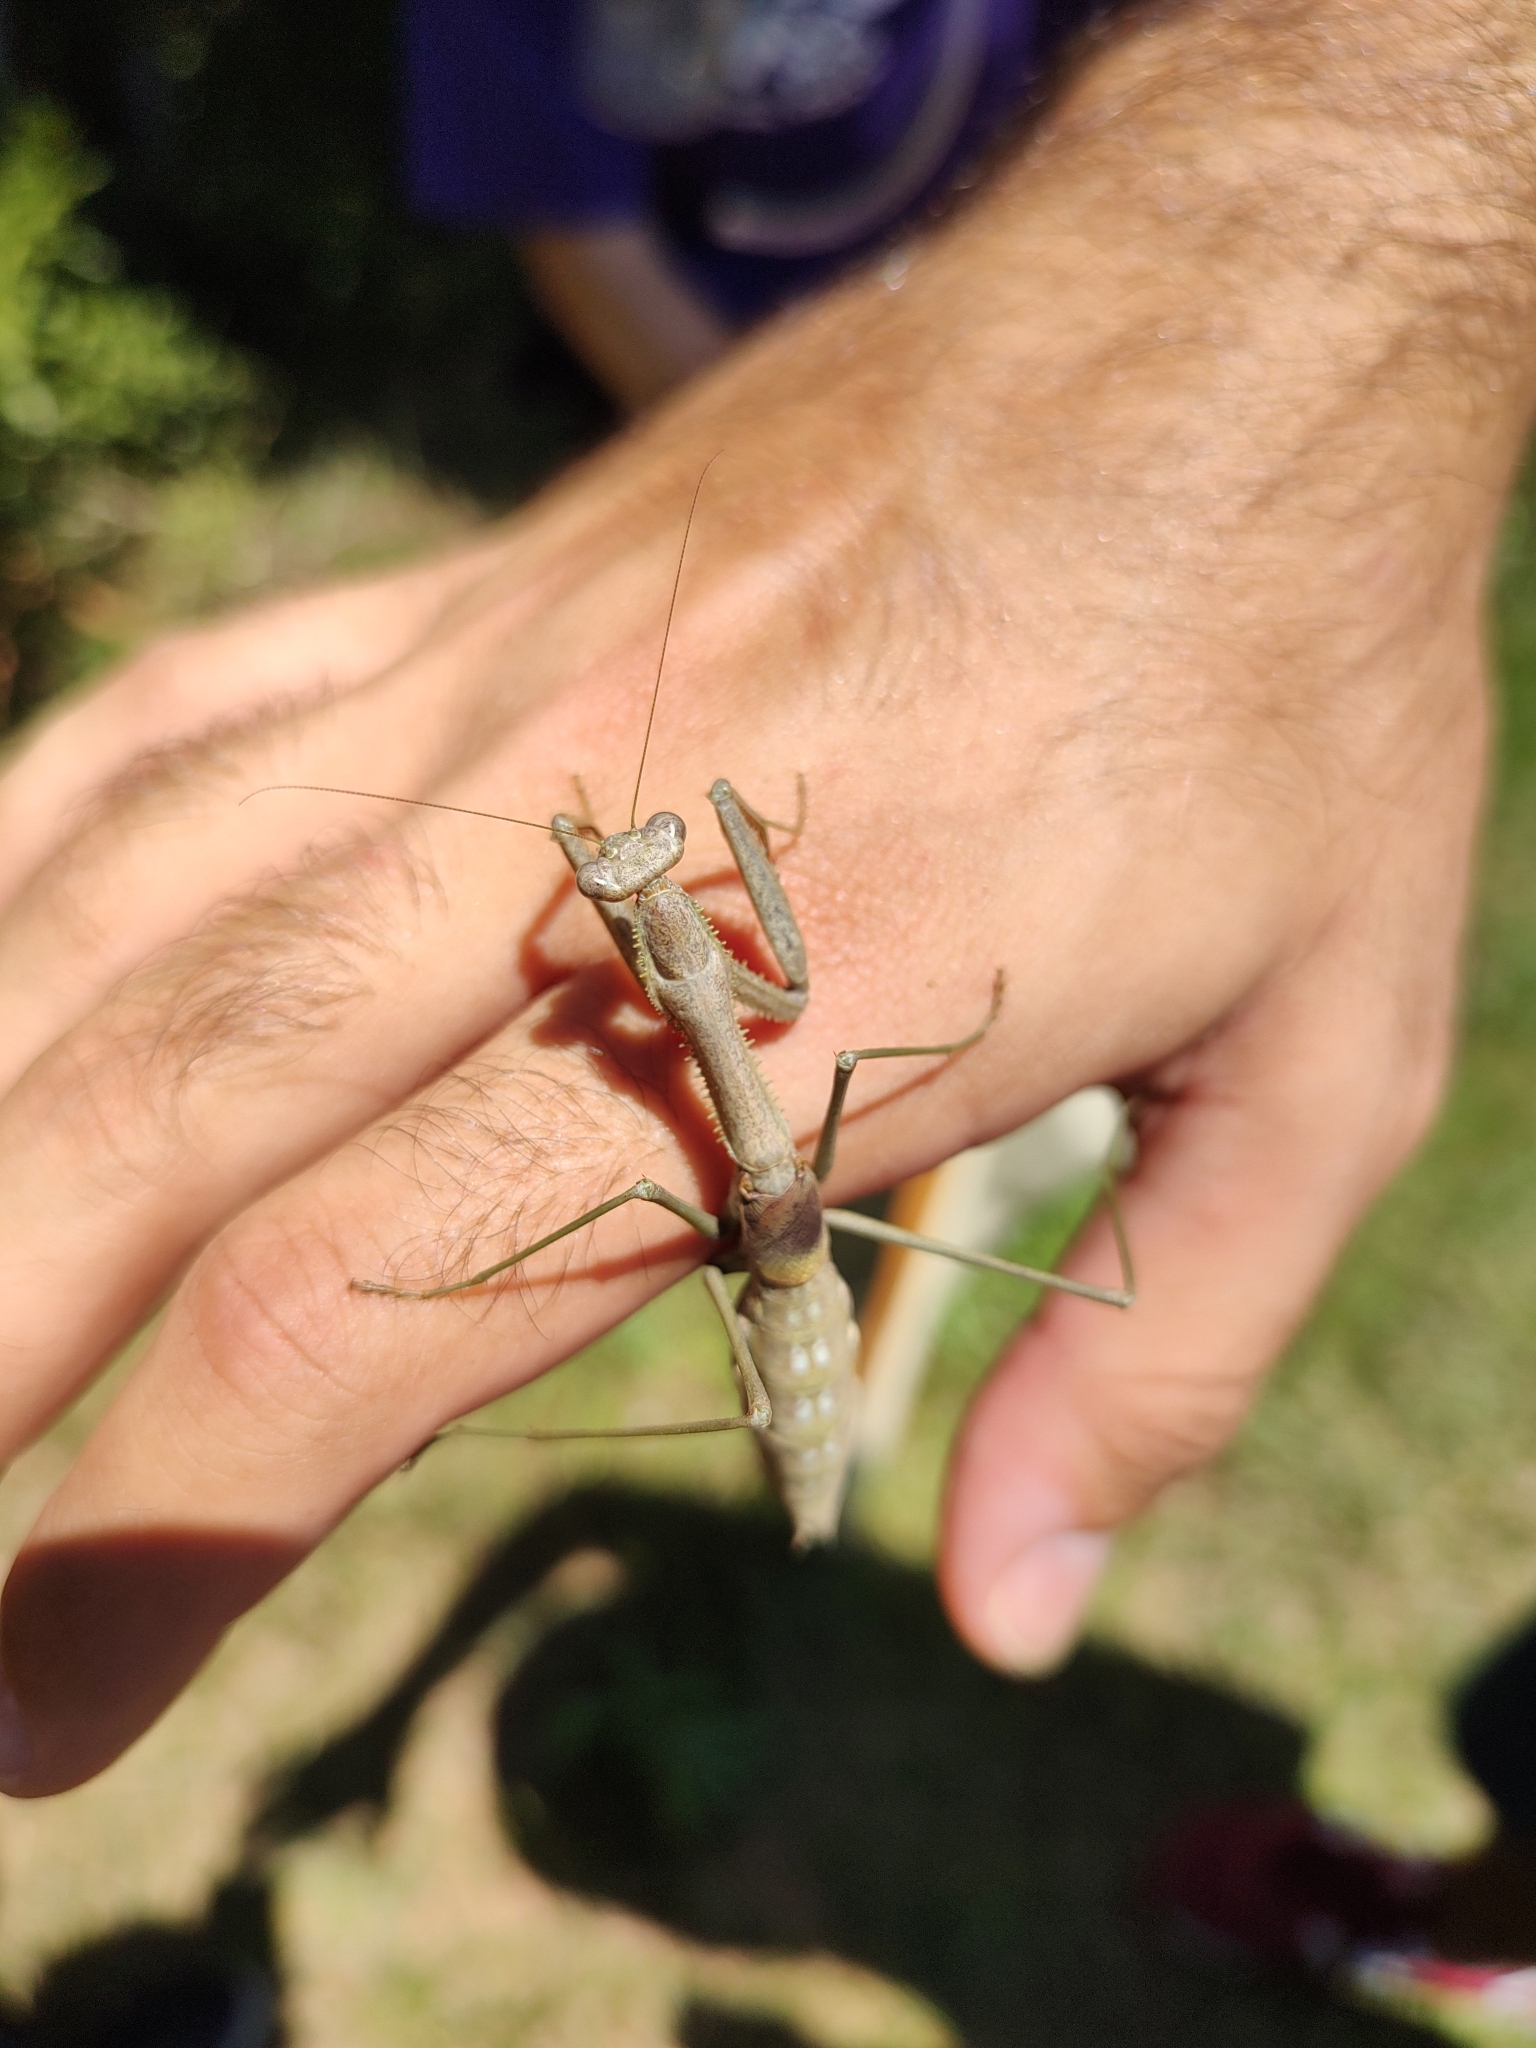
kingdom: Animalia
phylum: Arthropoda
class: Insecta
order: Mantodea
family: Coptopterygidae
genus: Coptopteryx
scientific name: Coptopteryx gayi
